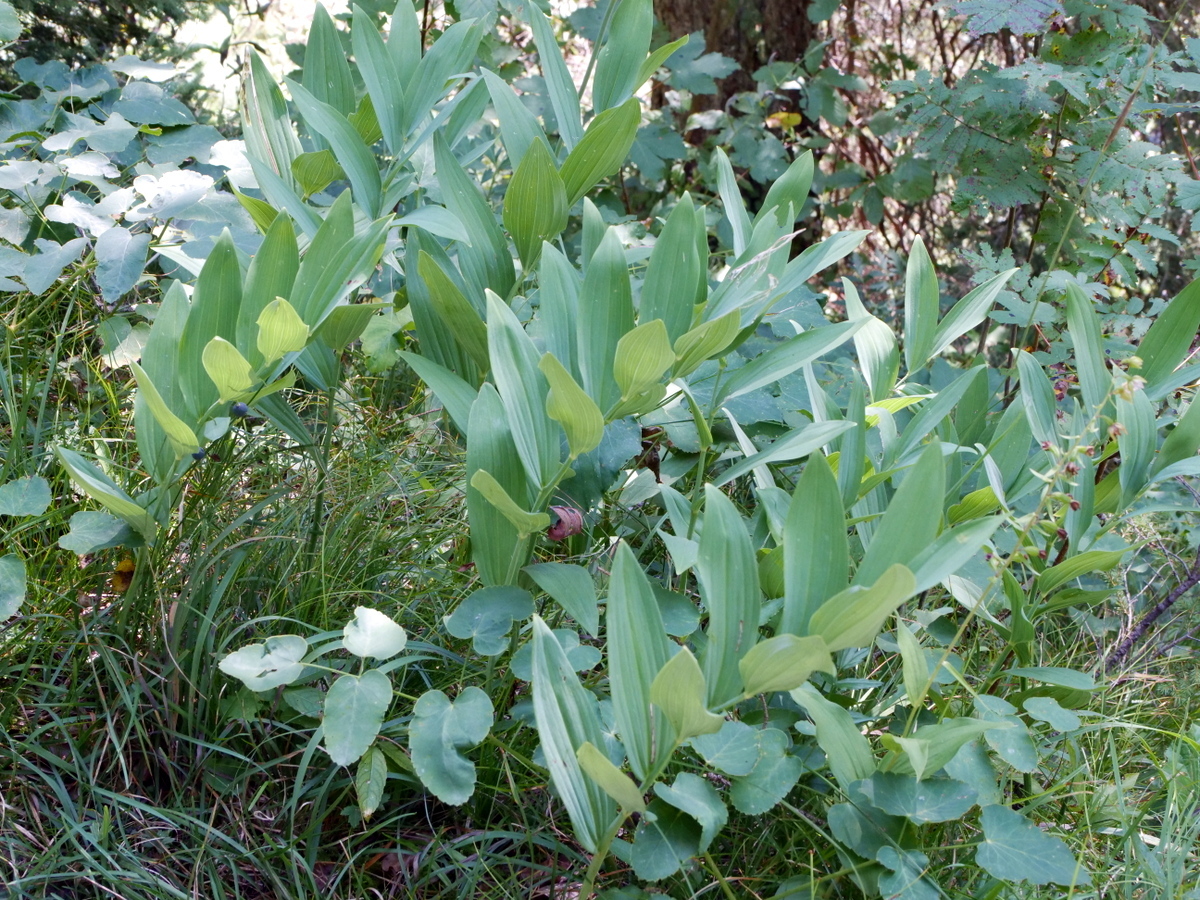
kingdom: Plantae
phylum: Tracheophyta
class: Liliopsida
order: Asparagales
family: Asparagaceae
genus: Polygonatum
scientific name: Polygonatum odoratum
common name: Angular solomon's-seal
